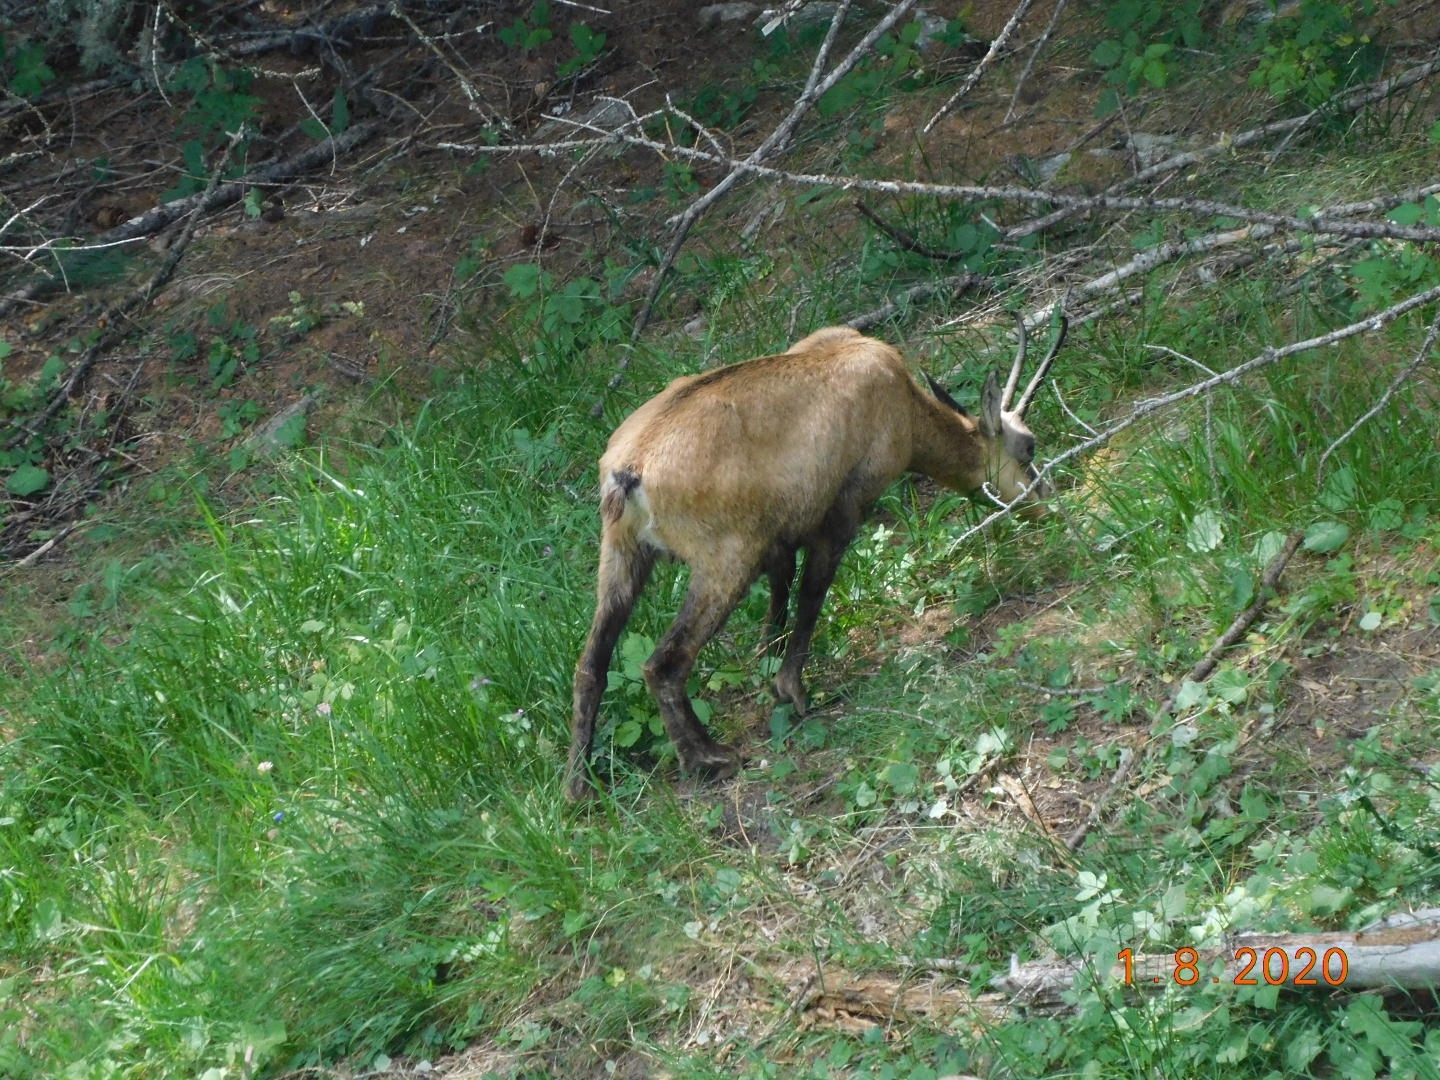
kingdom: Animalia
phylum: Chordata
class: Mammalia
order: Artiodactyla
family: Bovidae
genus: Rupicapra
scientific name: Rupicapra rupicapra
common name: Chamois
